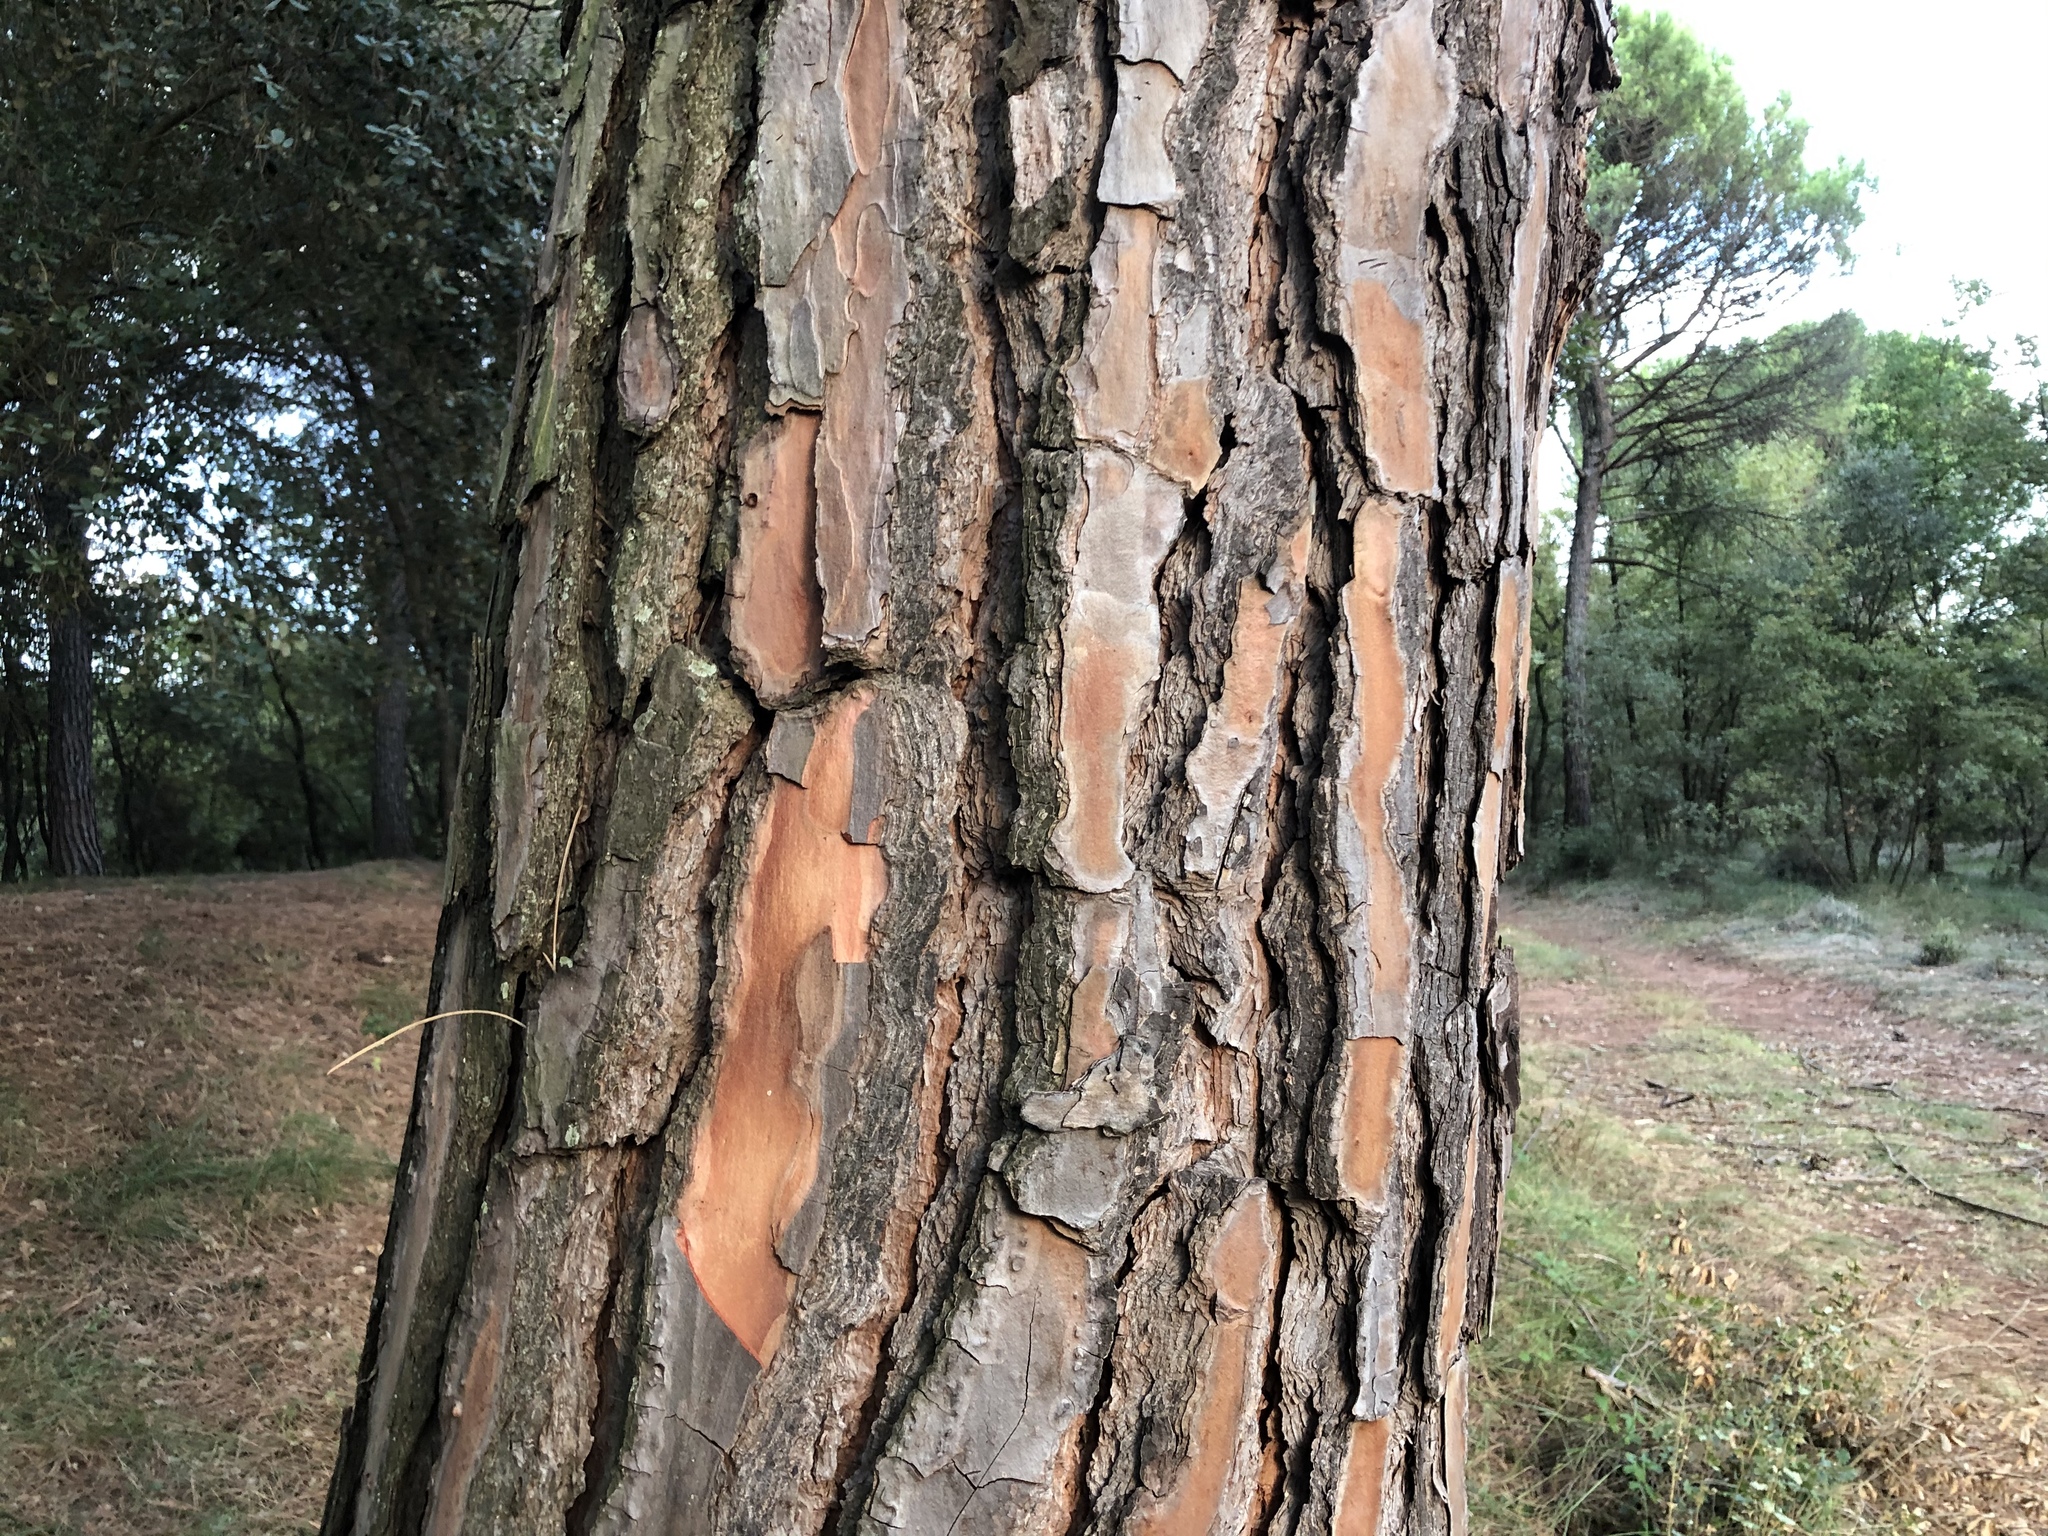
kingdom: Plantae
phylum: Tracheophyta
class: Pinopsida
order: Pinales
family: Pinaceae
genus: Pinus
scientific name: Pinus pinea
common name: Italian stone pine
